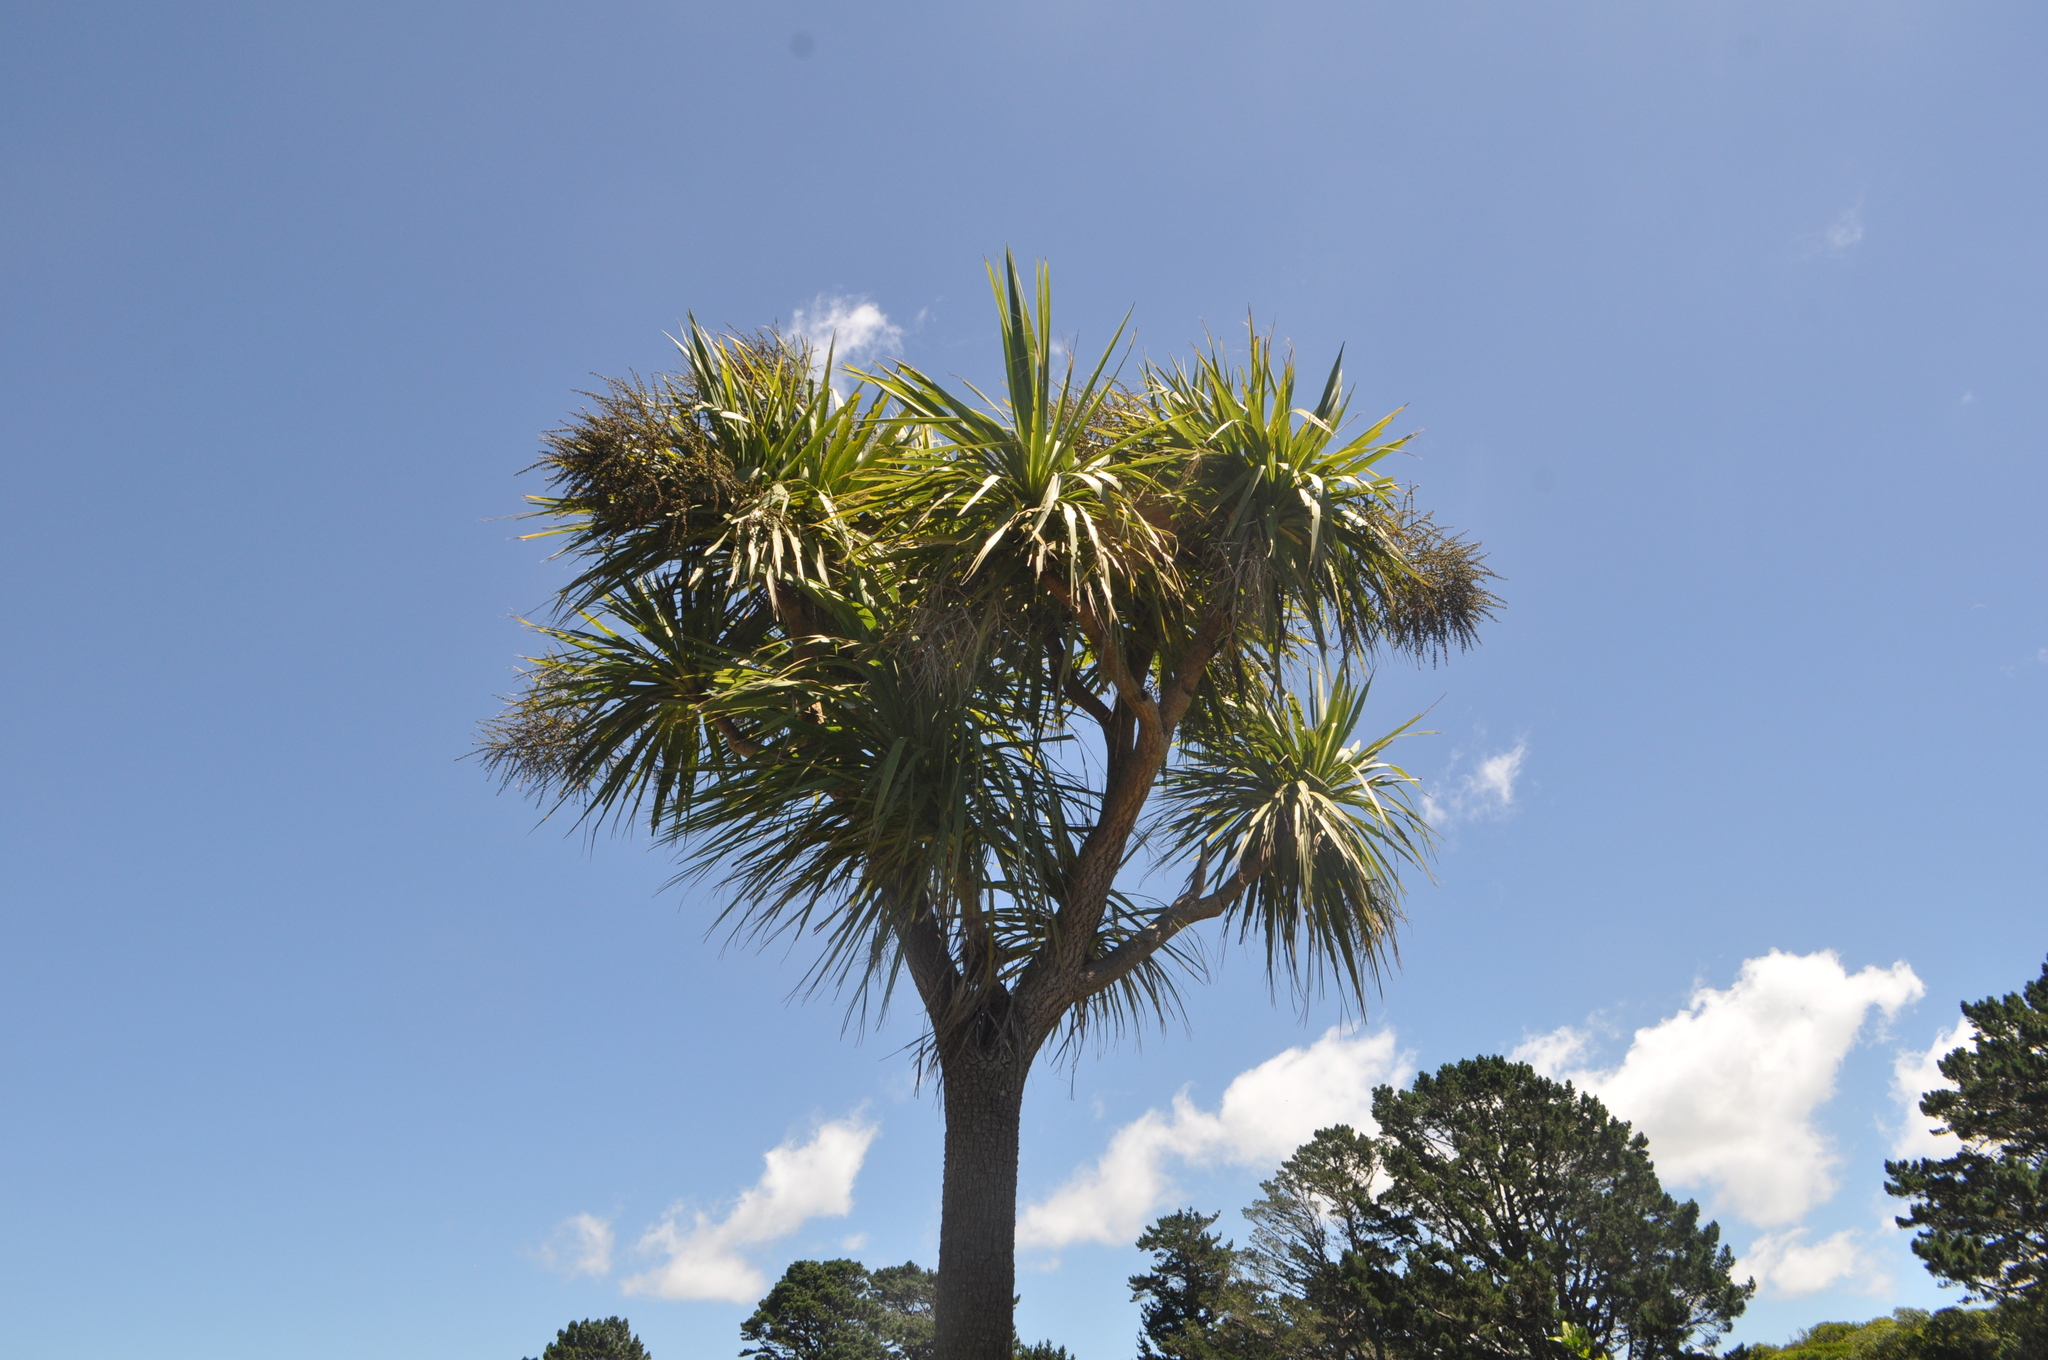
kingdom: Plantae
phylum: Tracheophyta
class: Liliopsida
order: Asparagales
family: Asparagaceae
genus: Cordyline
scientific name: Cordyline australis
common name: Cabbage-palm
